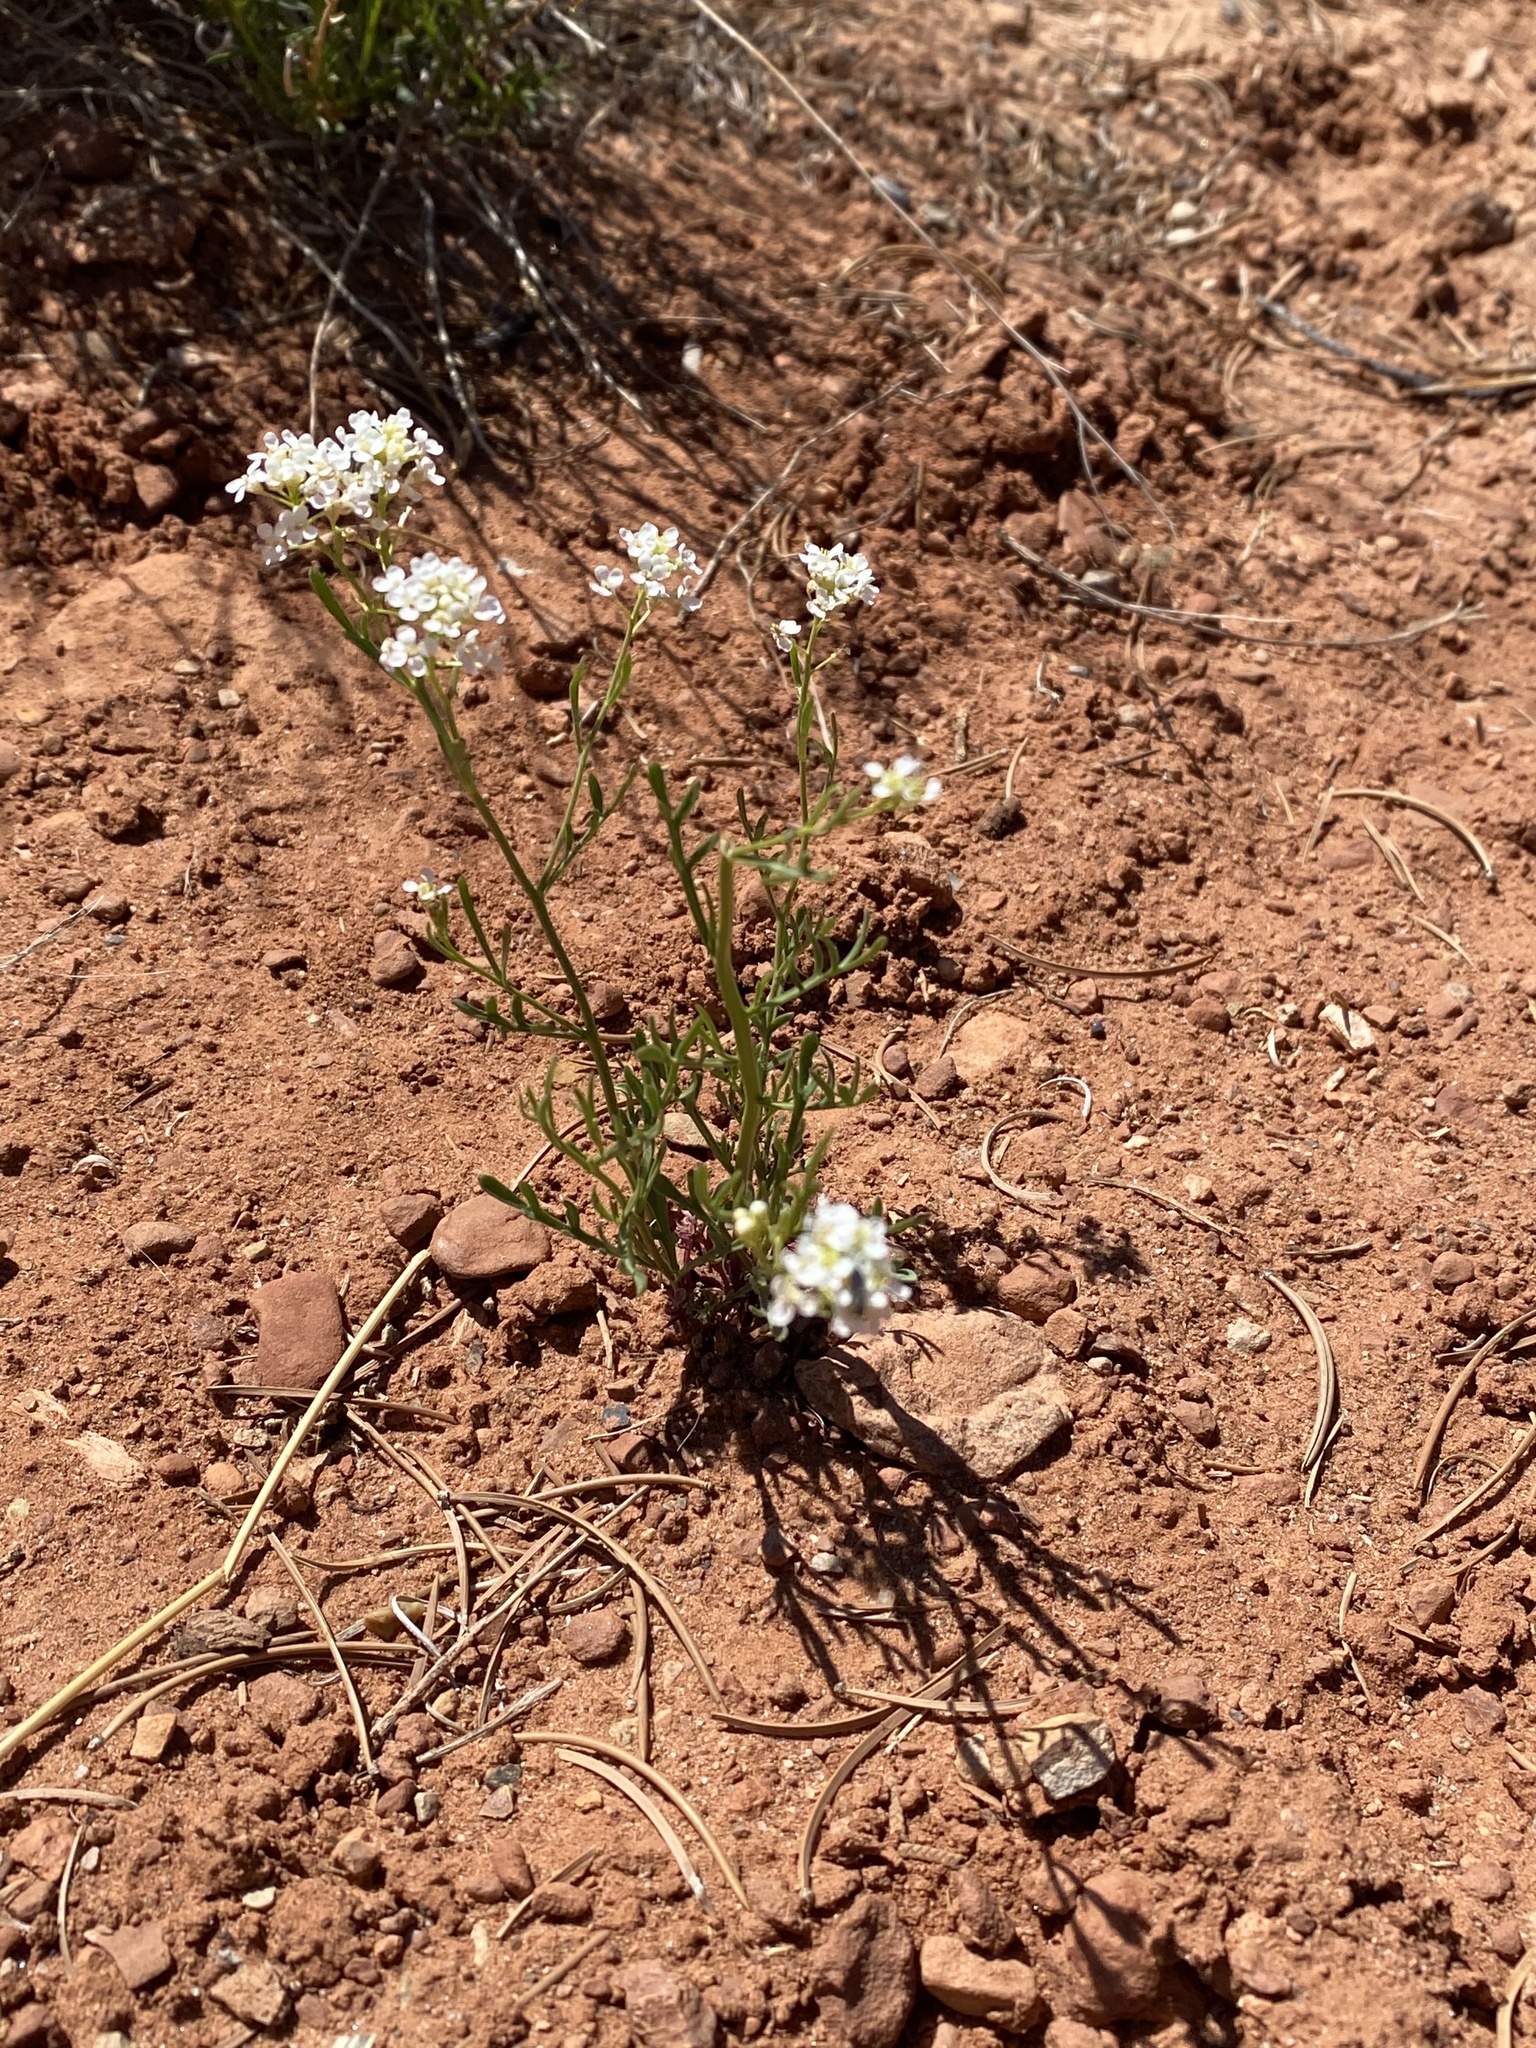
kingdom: Plantae
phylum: Tracheophyta
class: Magnoliopsida
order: Brassicales
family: Brassicaceae
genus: Lepidium
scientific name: Lepidium montanum
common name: Mountain pepperplant
